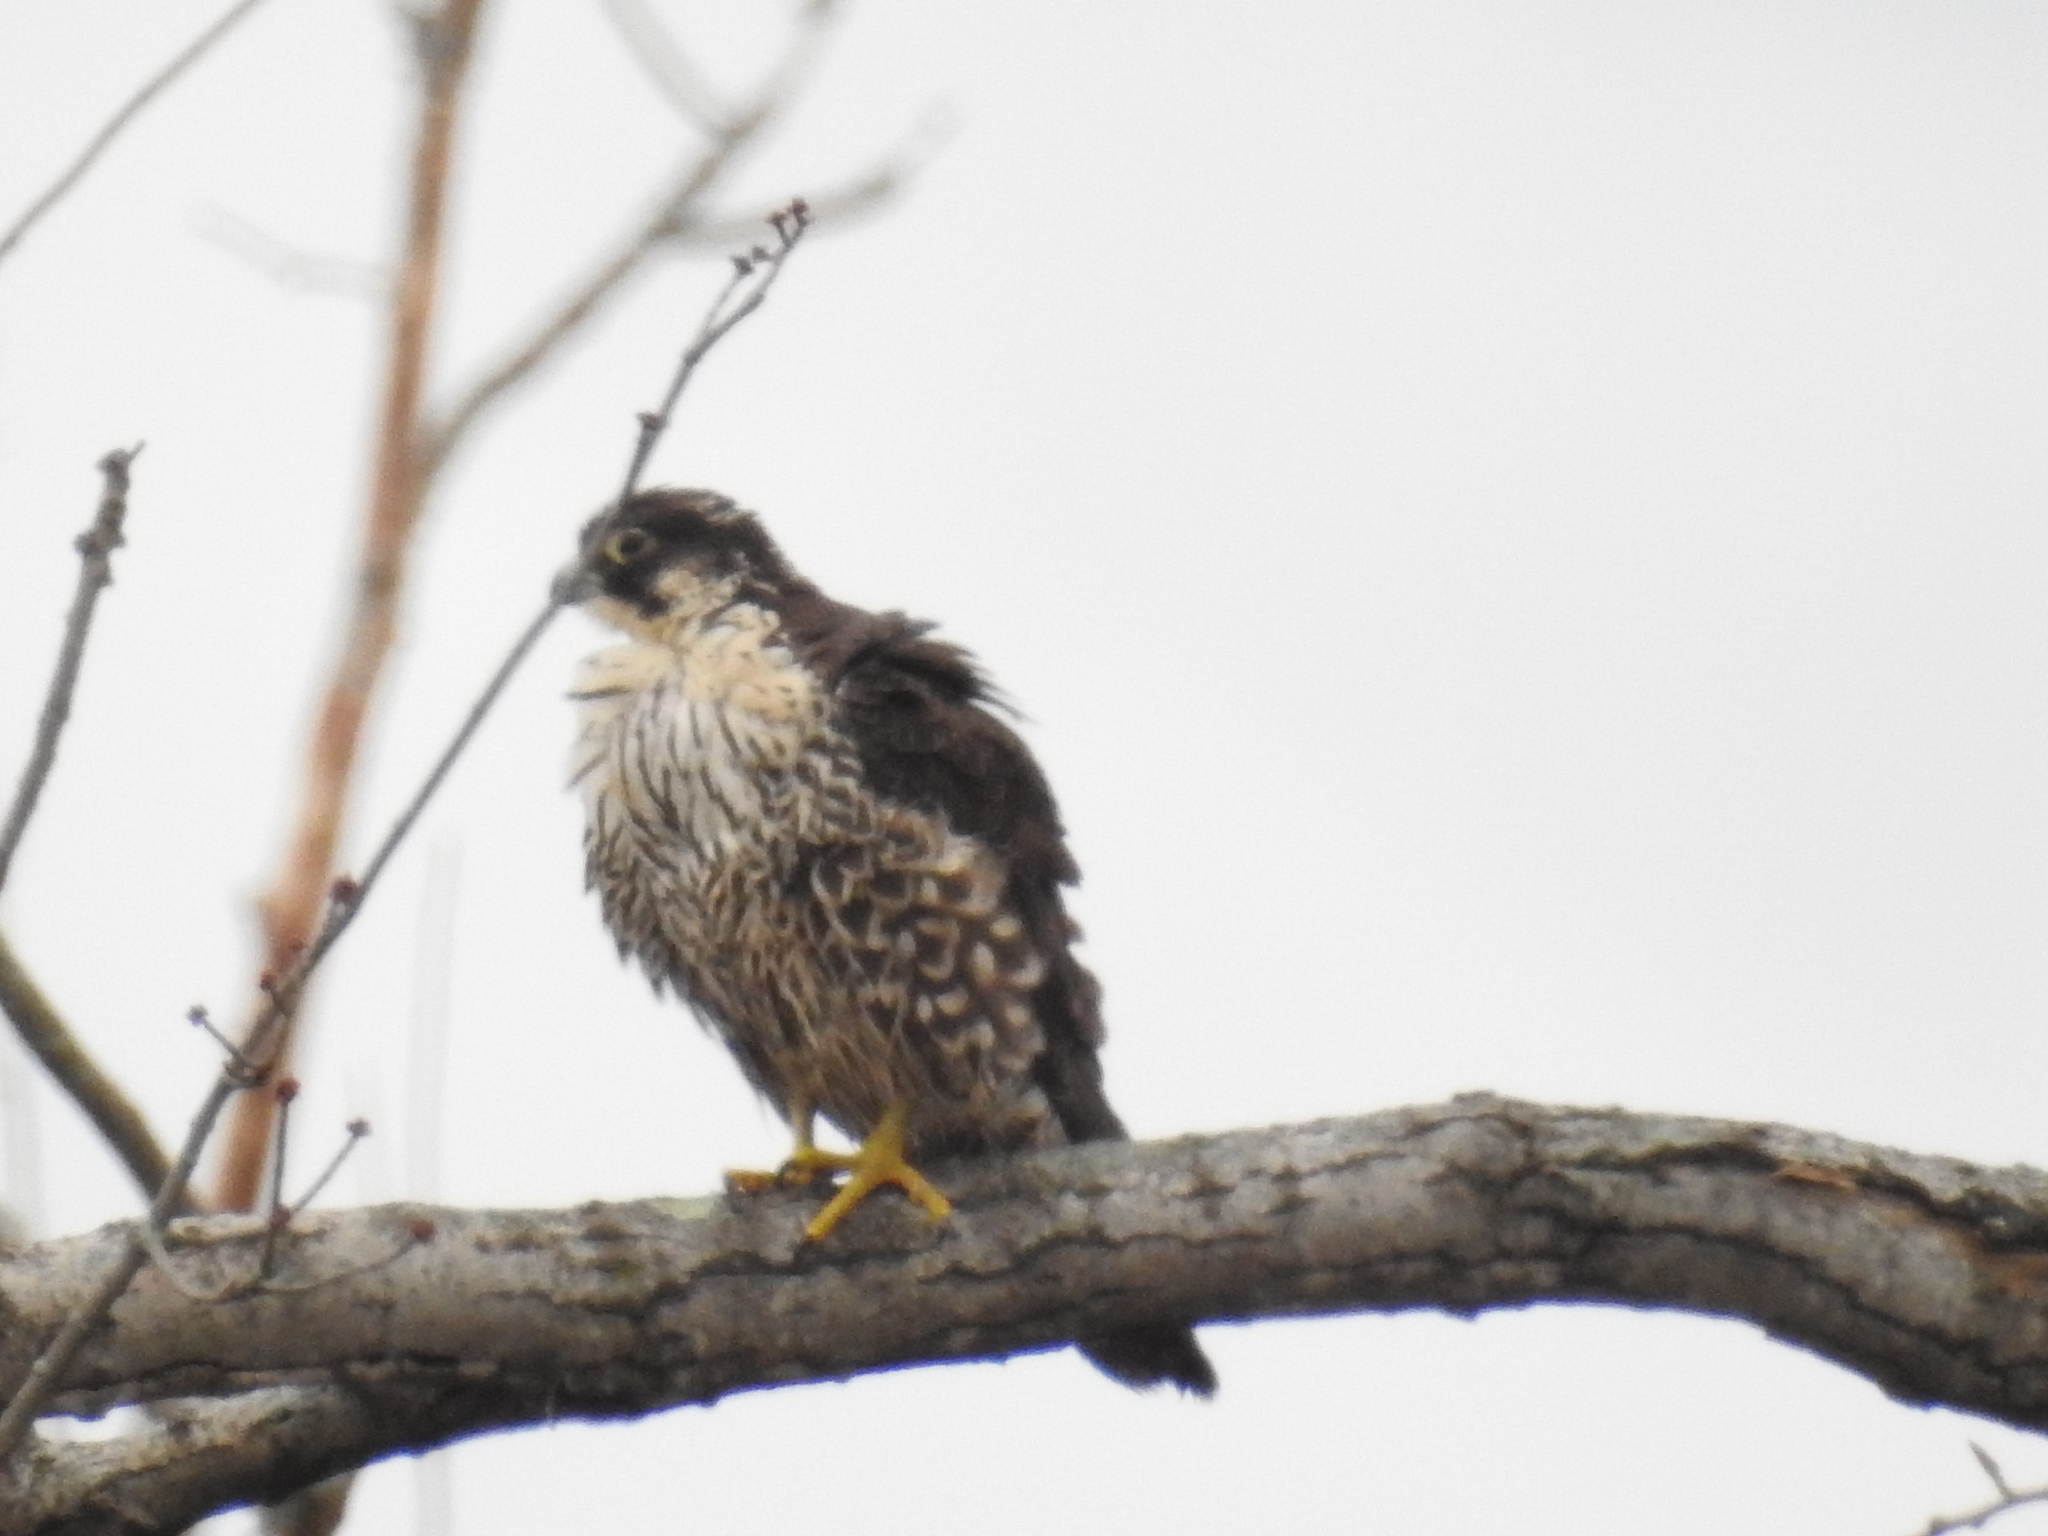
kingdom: Animalia
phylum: Chordata
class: Aves
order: Falconiformes
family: Falconidae
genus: Falco
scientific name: Falco peregrinus
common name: Peregrine falcon
